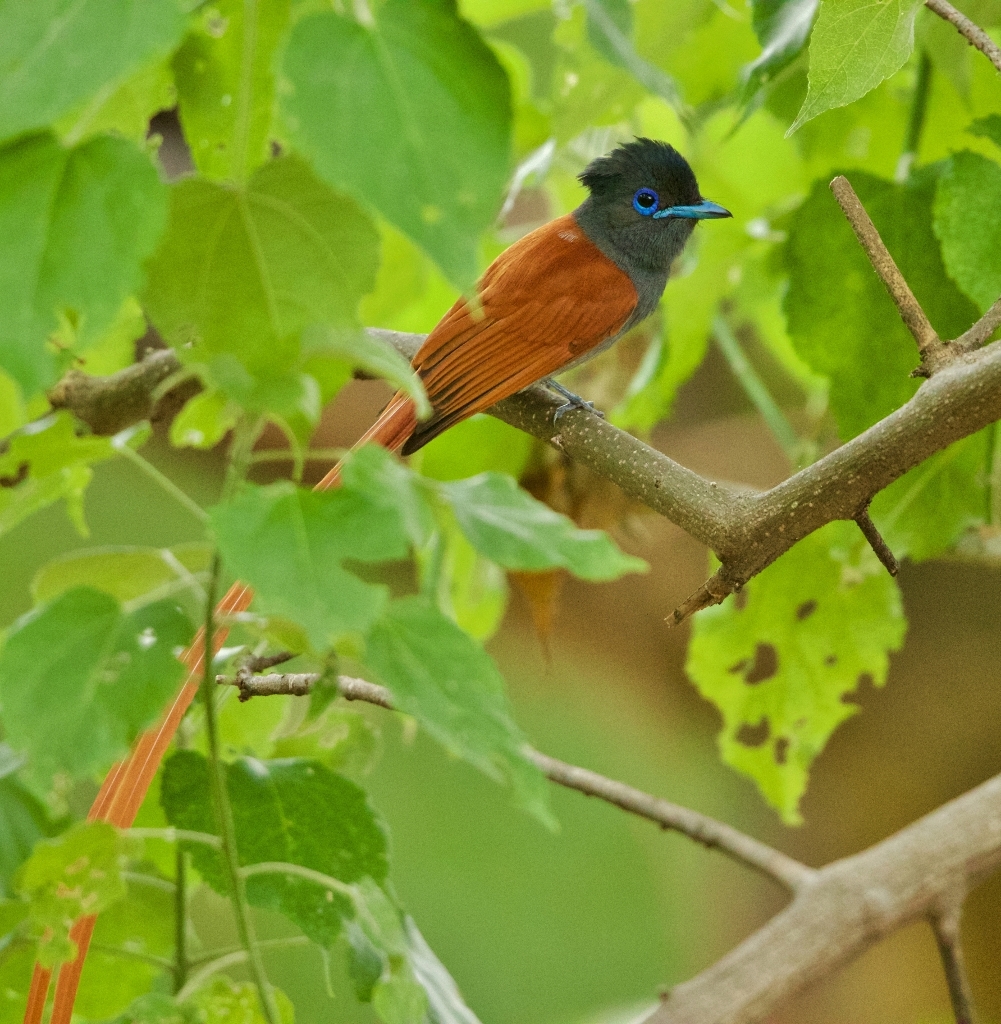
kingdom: Animalia
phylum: Chordata
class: Aves
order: Passeriformes
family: Monarchidae
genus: Terpsiphone
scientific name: Terpsiphone viridis
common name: African paradise flycatcher
